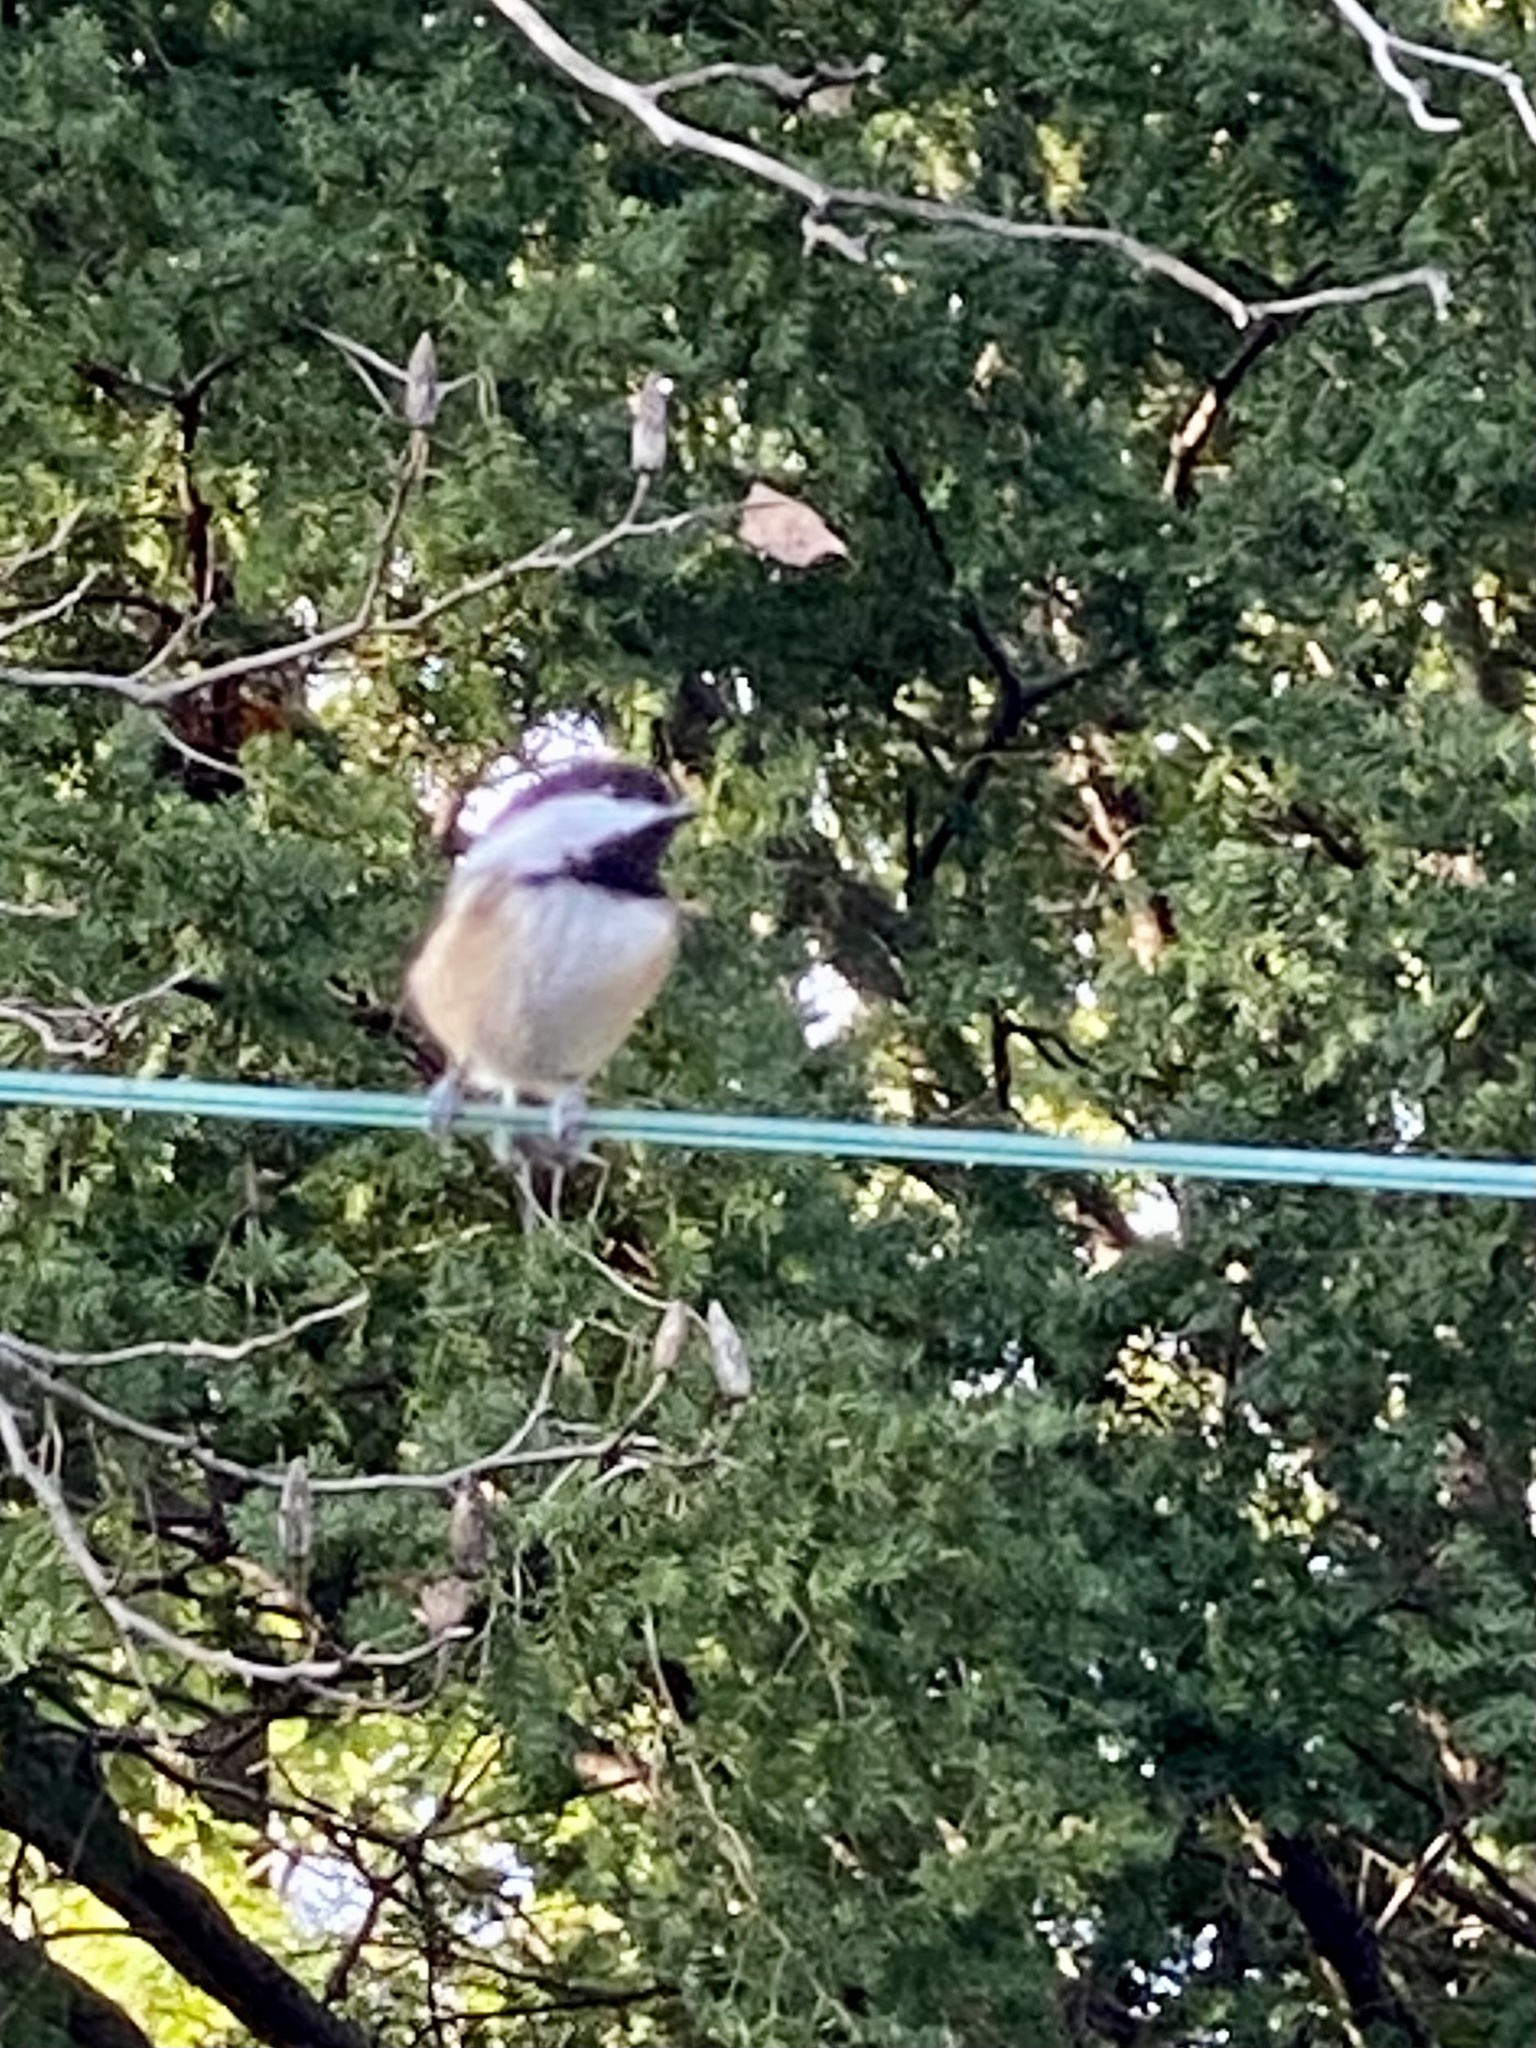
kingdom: Animalia
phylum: Chordata
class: Aves
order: Passeriformes
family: Paridae
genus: Poecile
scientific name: Poecile atricapillus
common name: Black-capped chickadee
